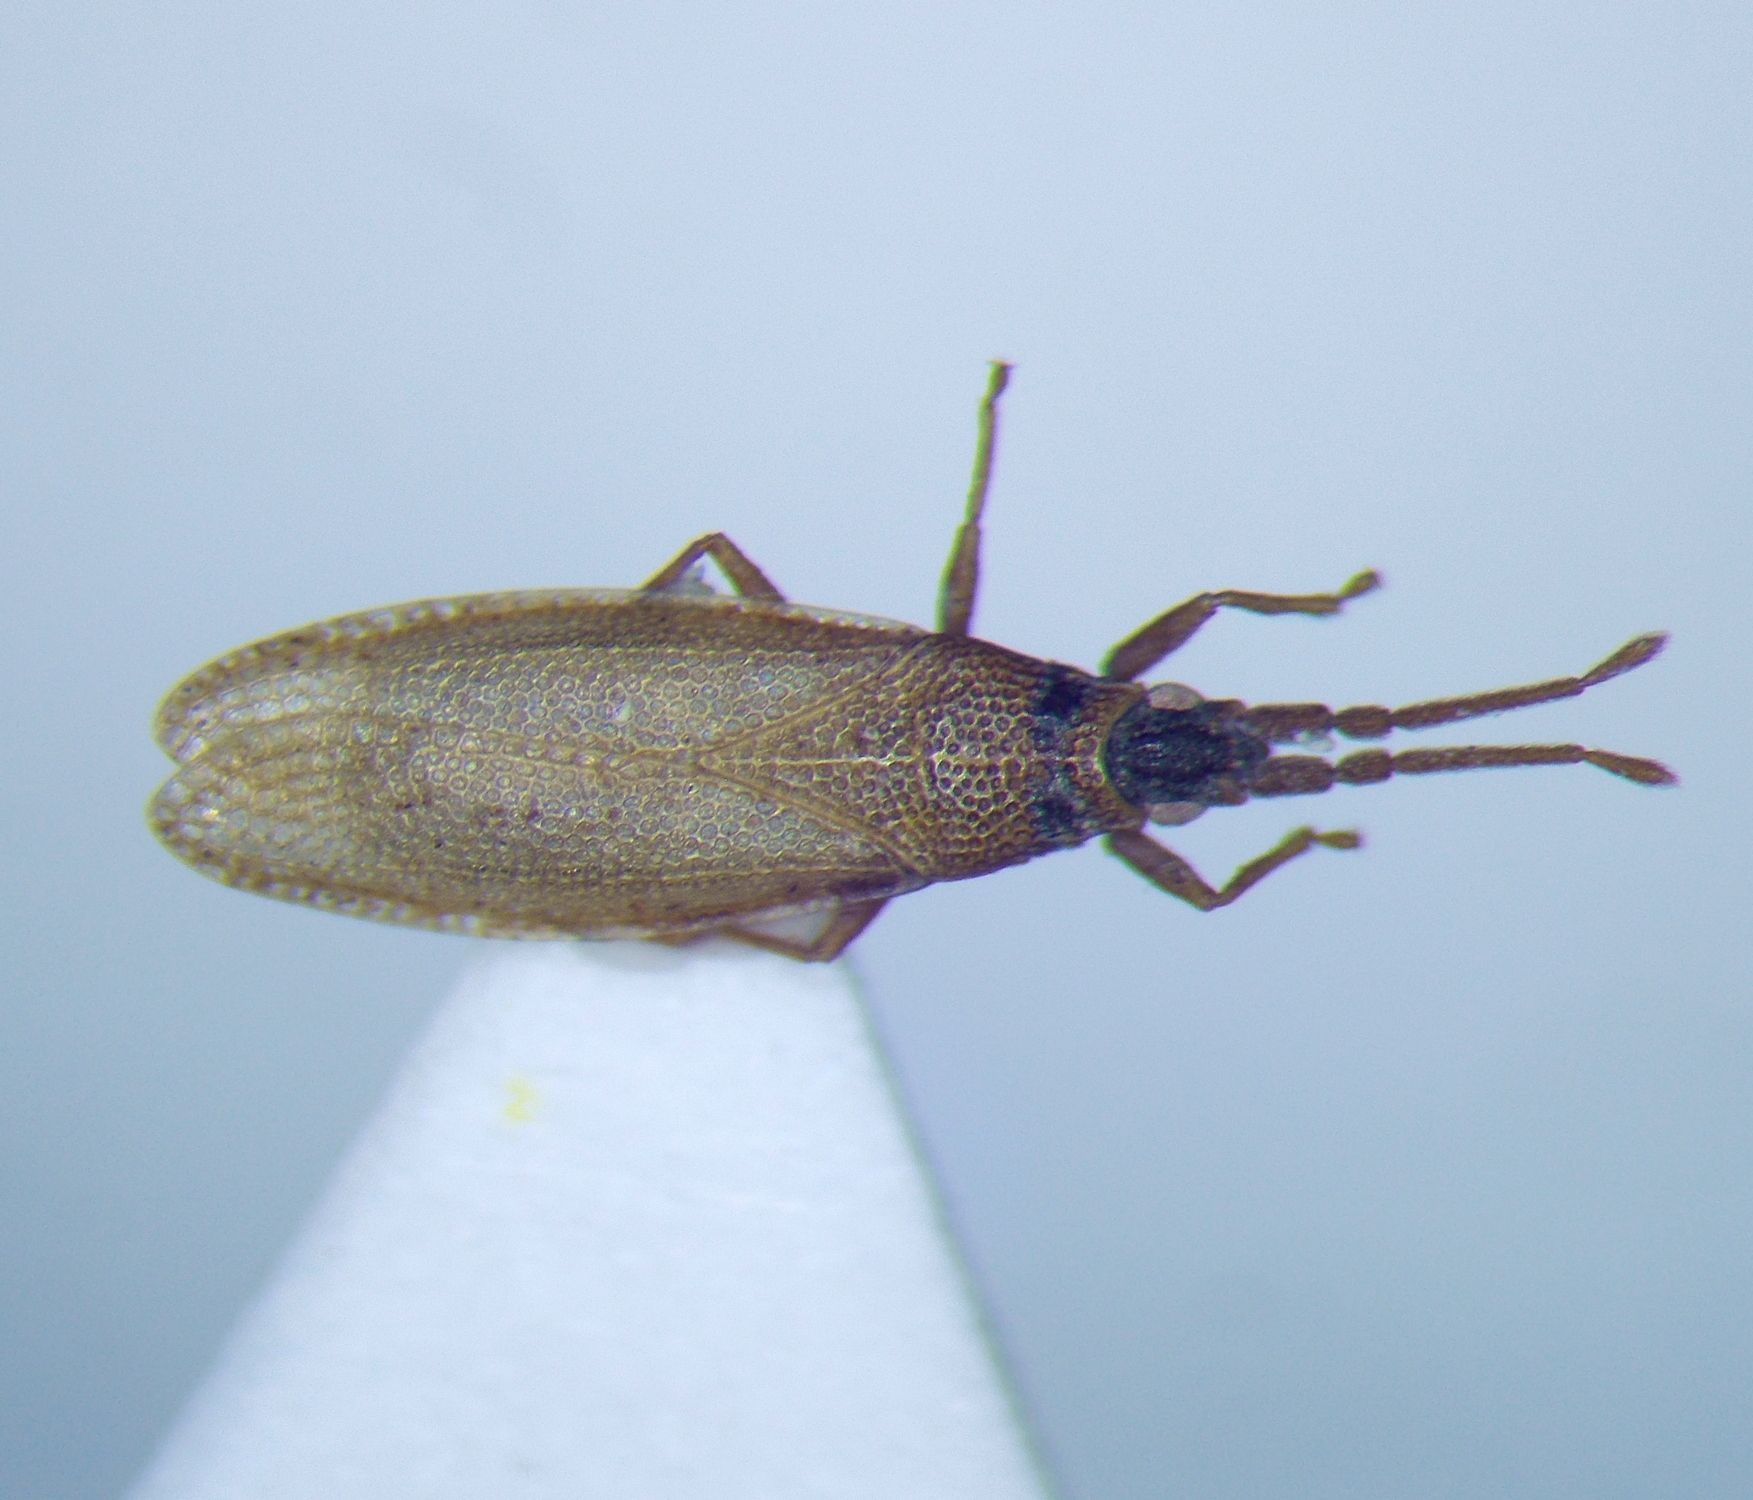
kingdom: Animalia
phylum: Arthropoda
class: Insecta
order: Hemiptera
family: Tingidae
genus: Agramma
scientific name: Agramma atricapillum
